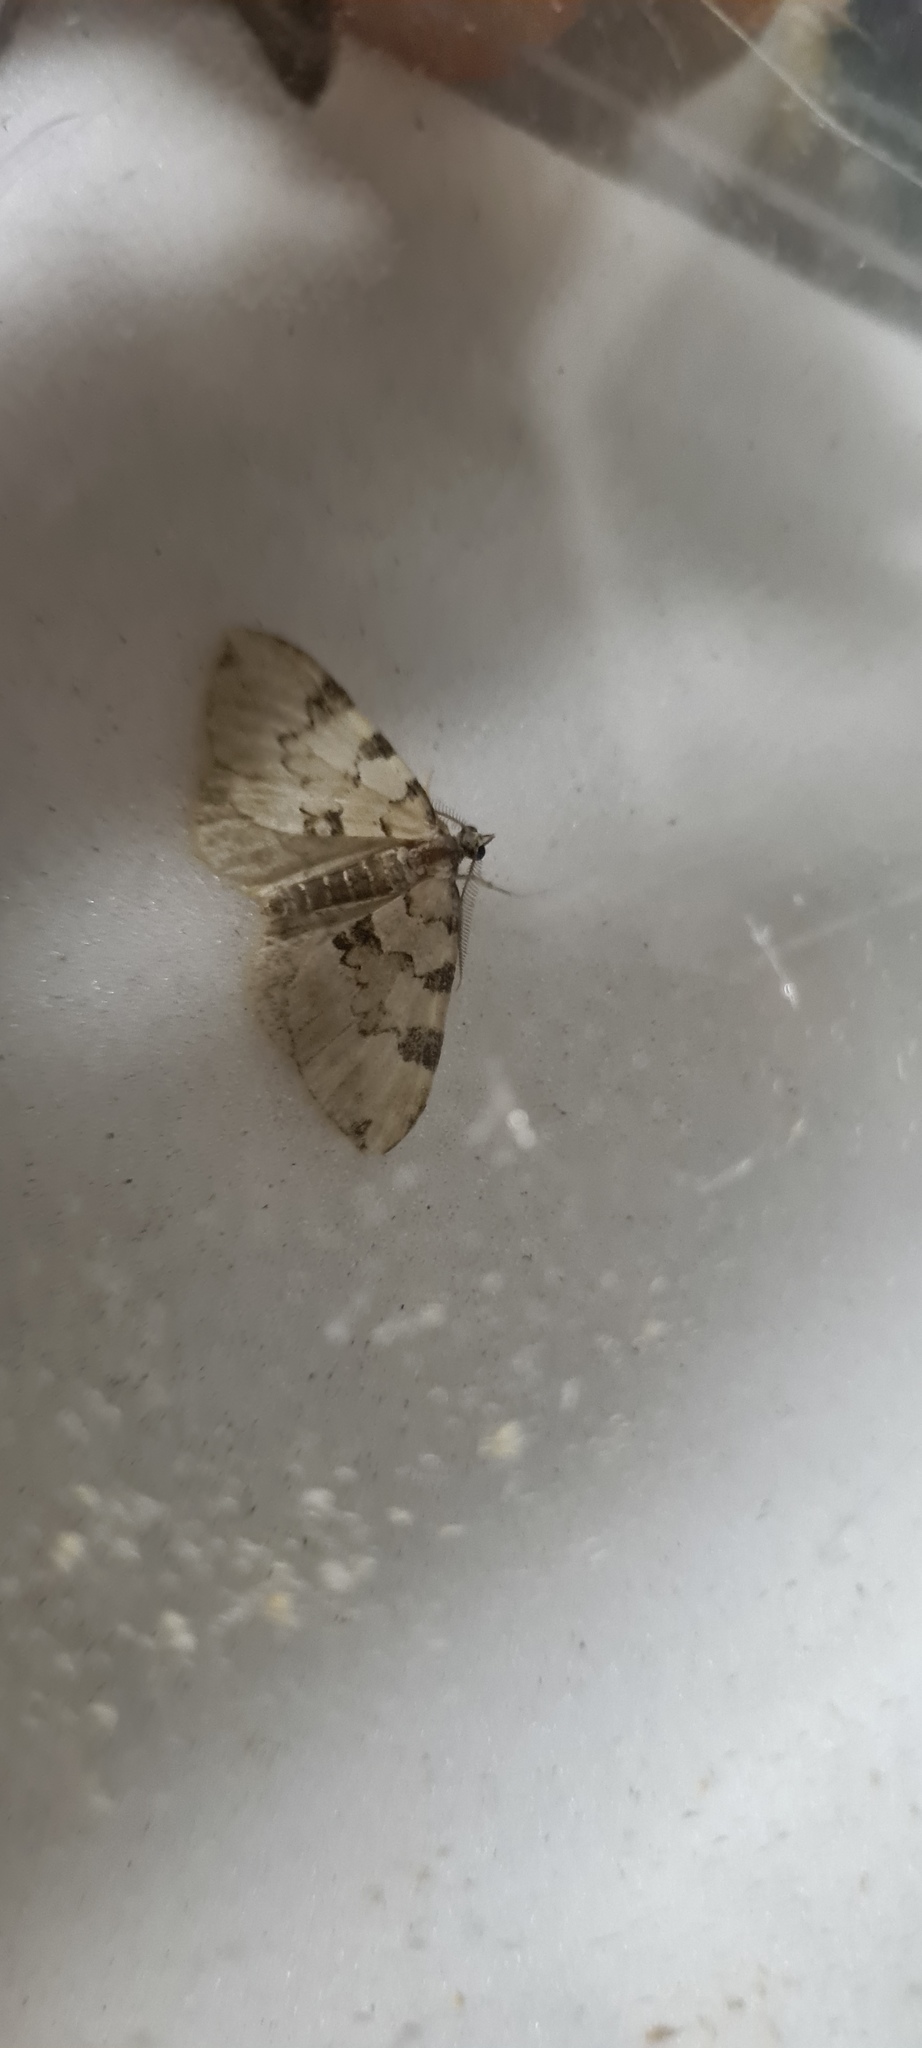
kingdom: Animalia
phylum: Arthropoda
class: Insecta
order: Lepidoptera
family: Geometridae
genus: Colostygia
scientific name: Colostygia pectinataria
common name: Green carpet
